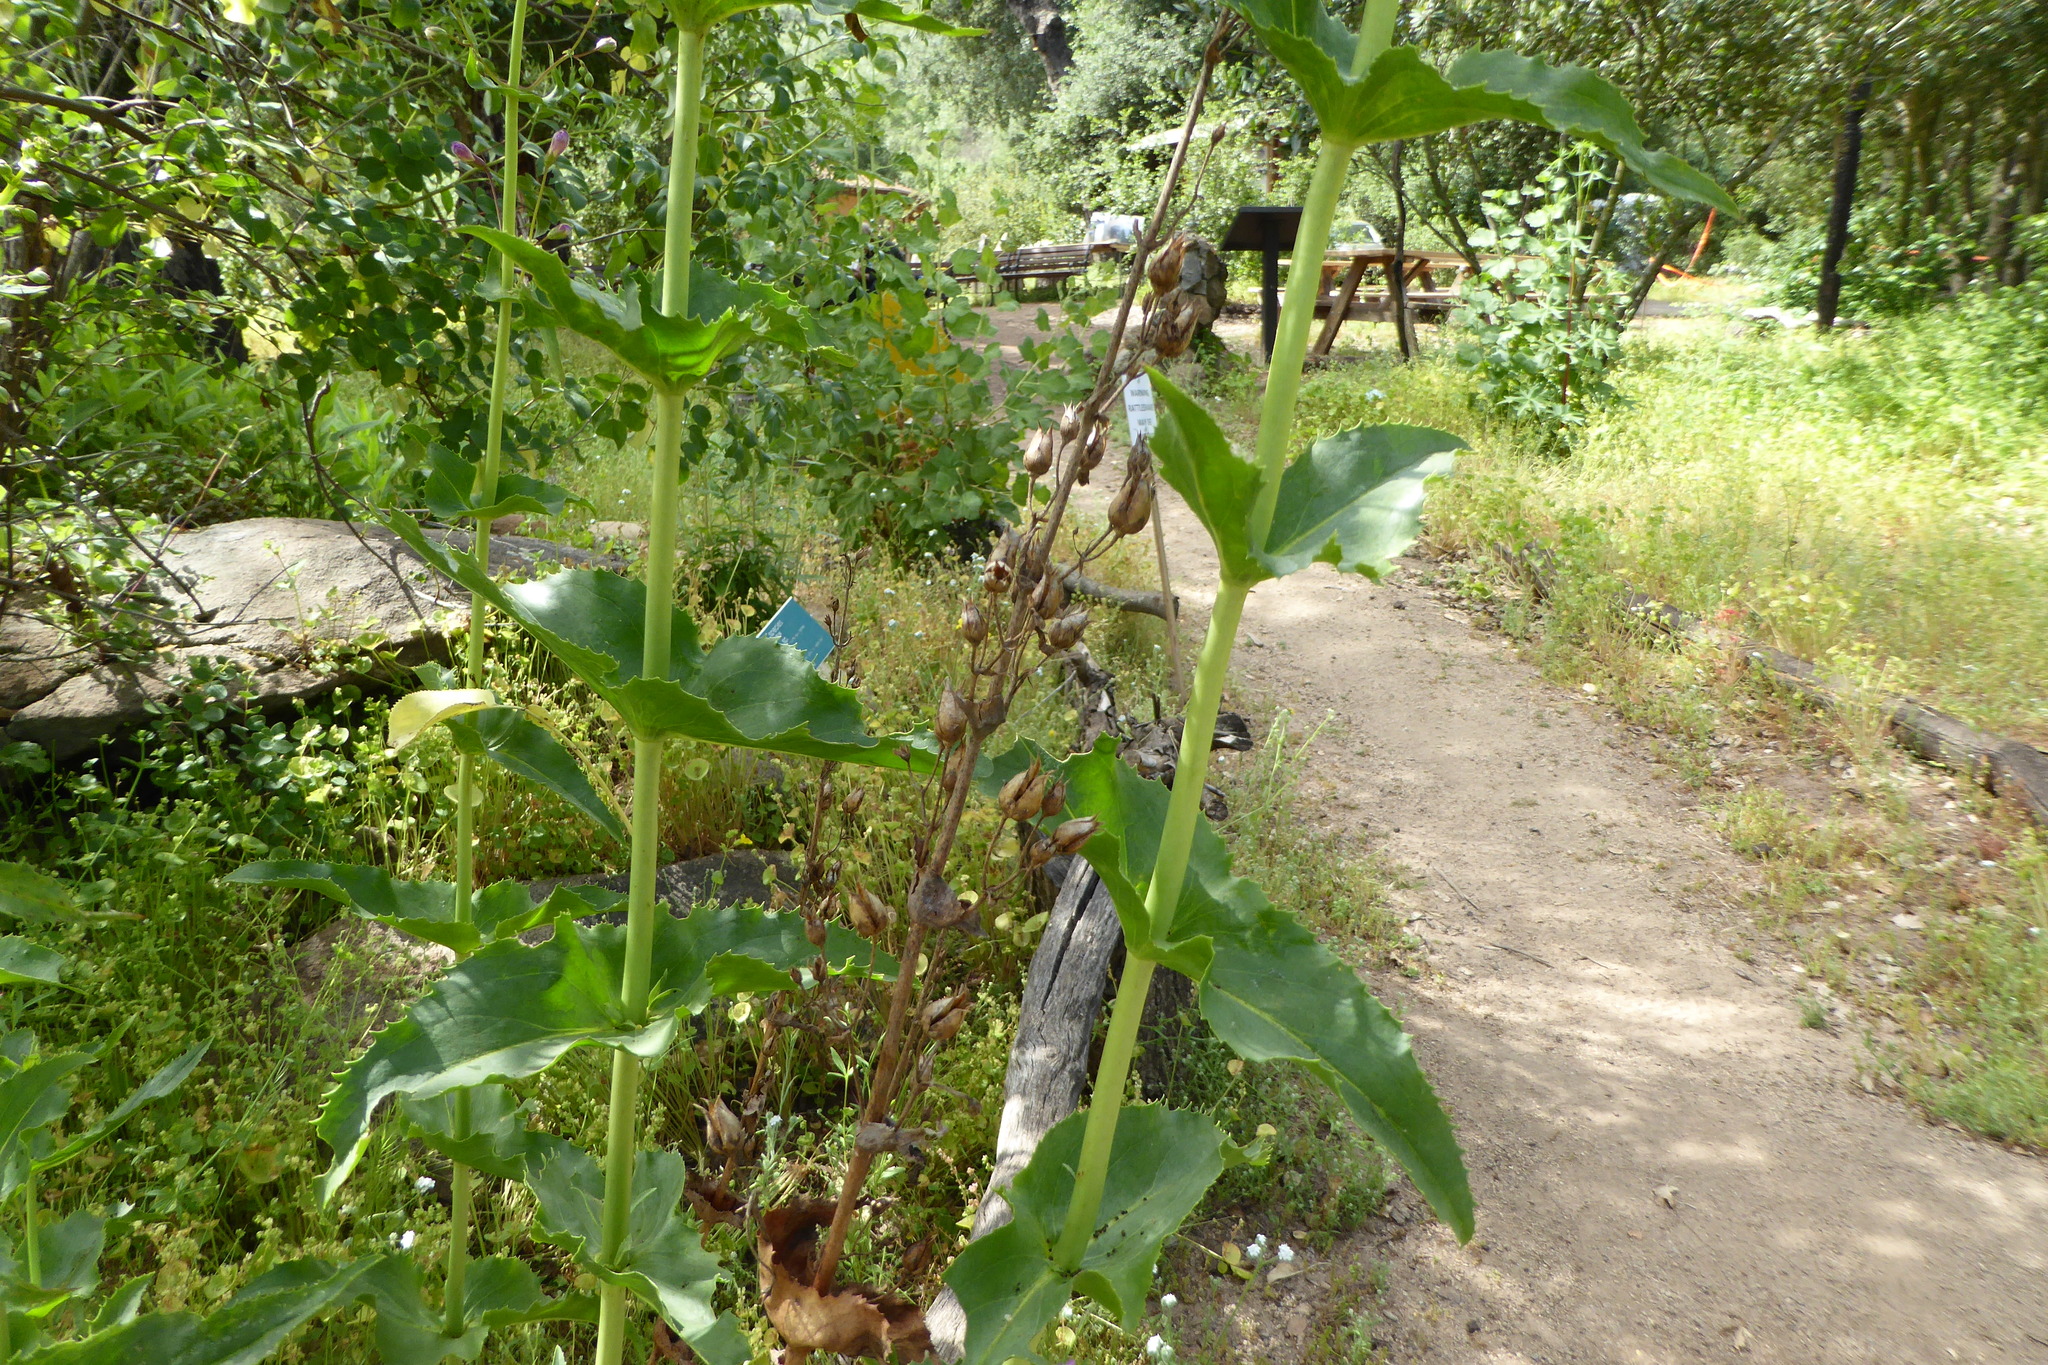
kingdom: Plantae
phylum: Tracheophyta
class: Magnoliopsida
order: Lamiales
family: Plantaginaceae
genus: Penstemon
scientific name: Penstemon spectabilis
